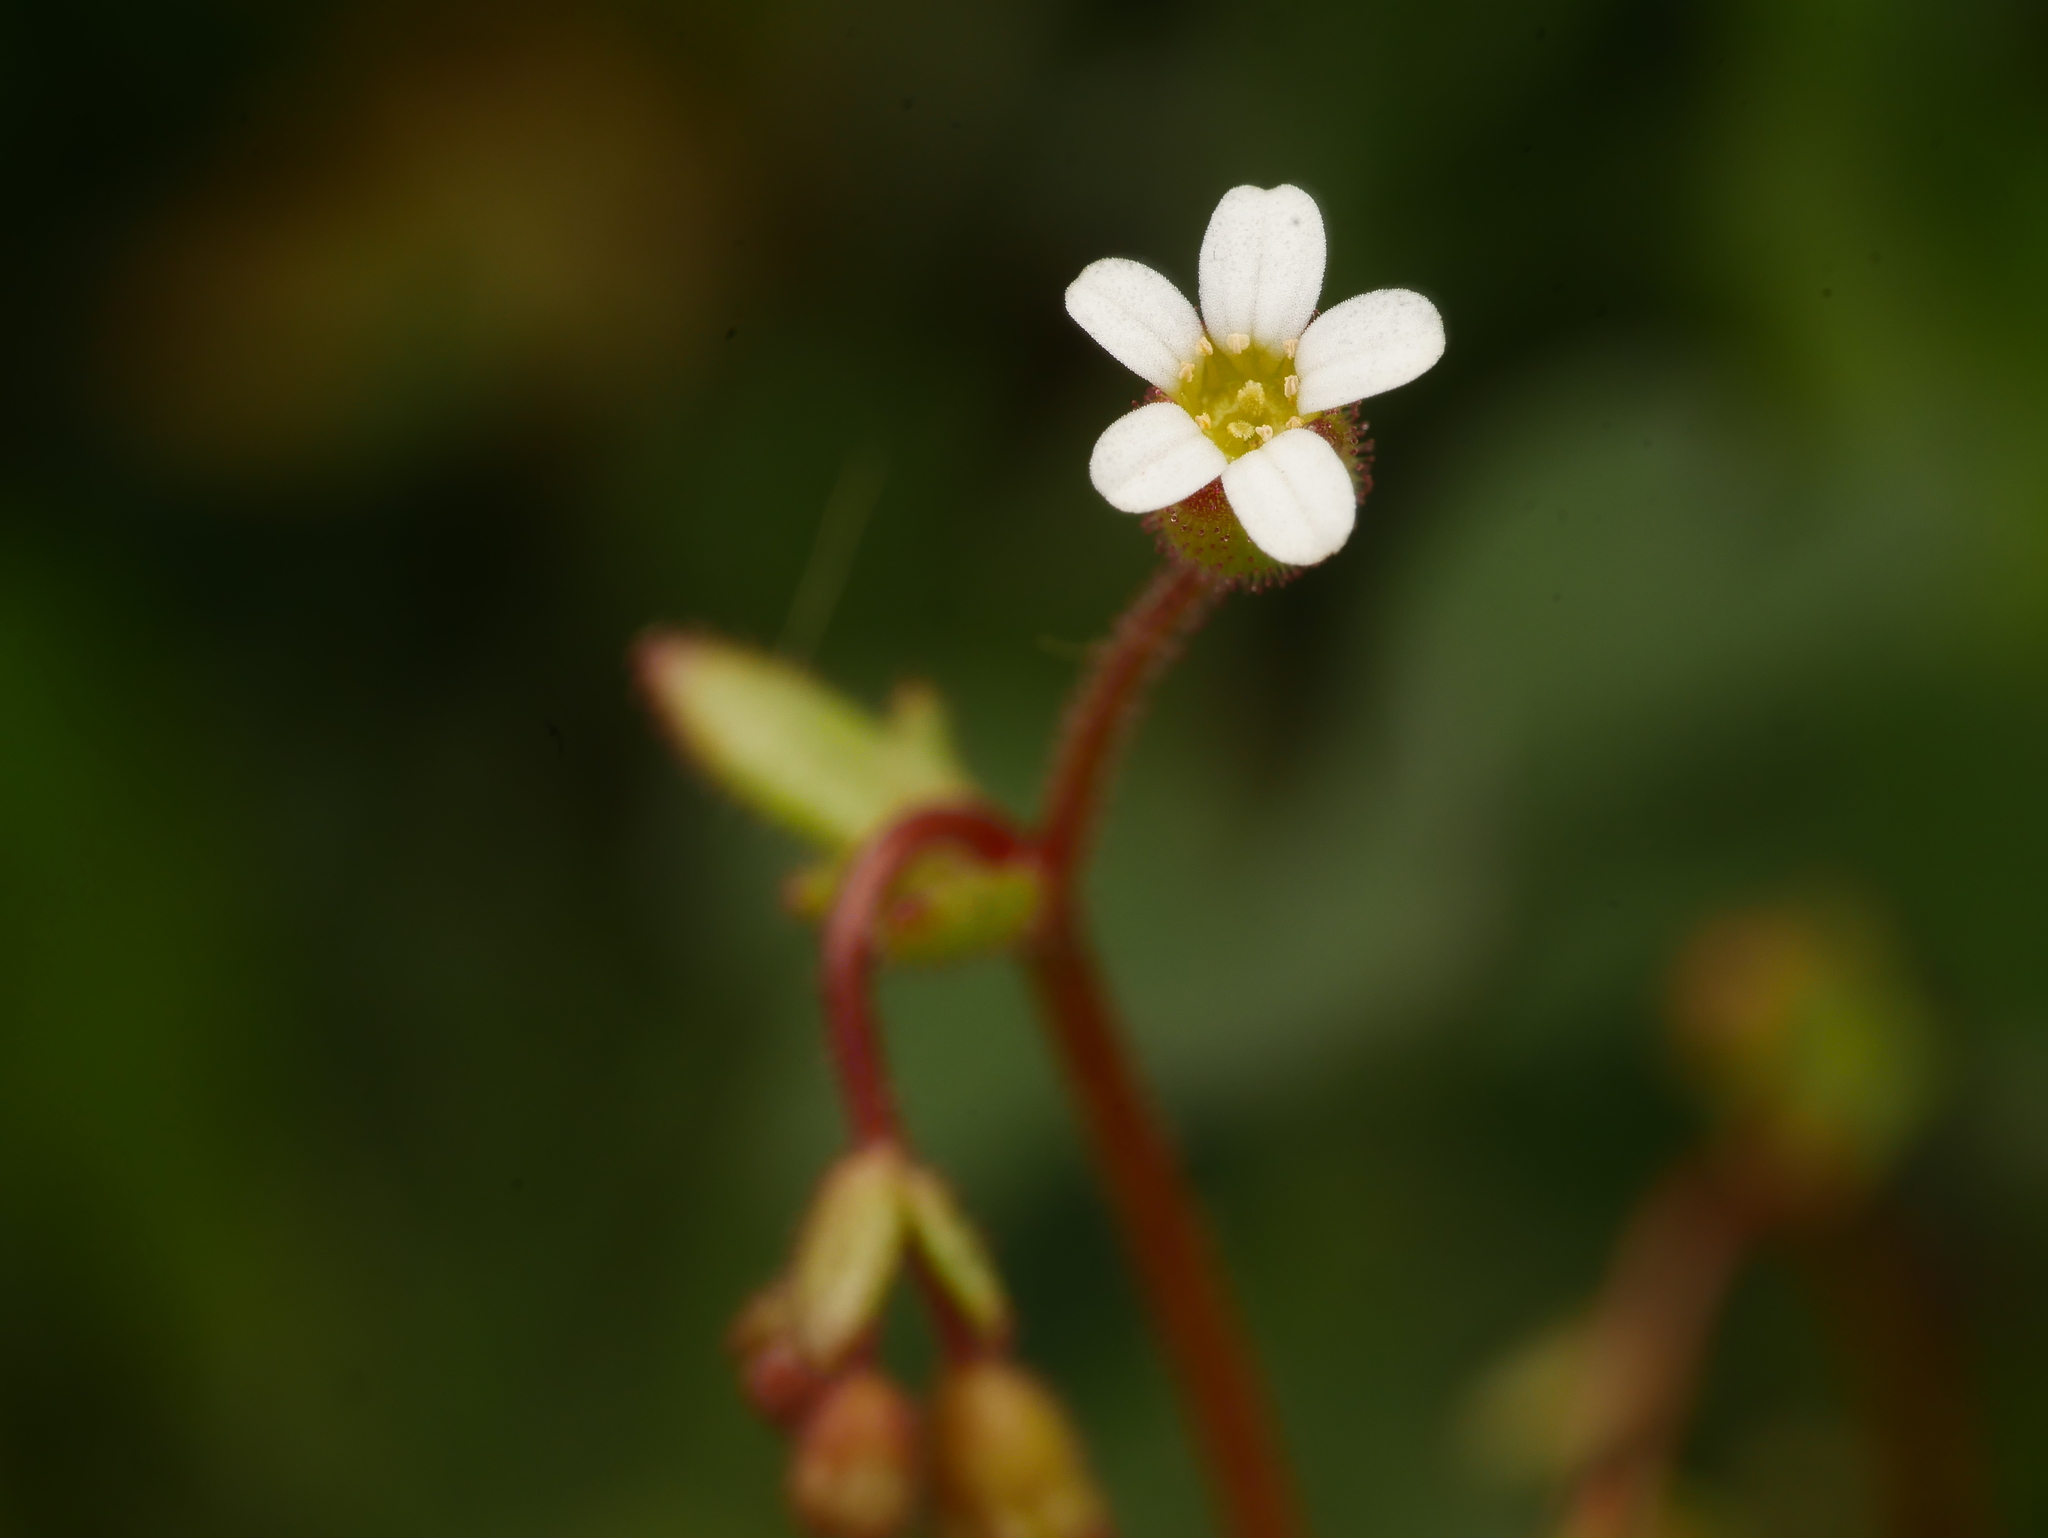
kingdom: Plantae
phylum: Tracheophyta
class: Magnoliopsida
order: Saxifragales
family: Saxifragaceae
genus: Saxifraga
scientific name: Saxifraga tridactylites
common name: Rue-leaved saxifrage
